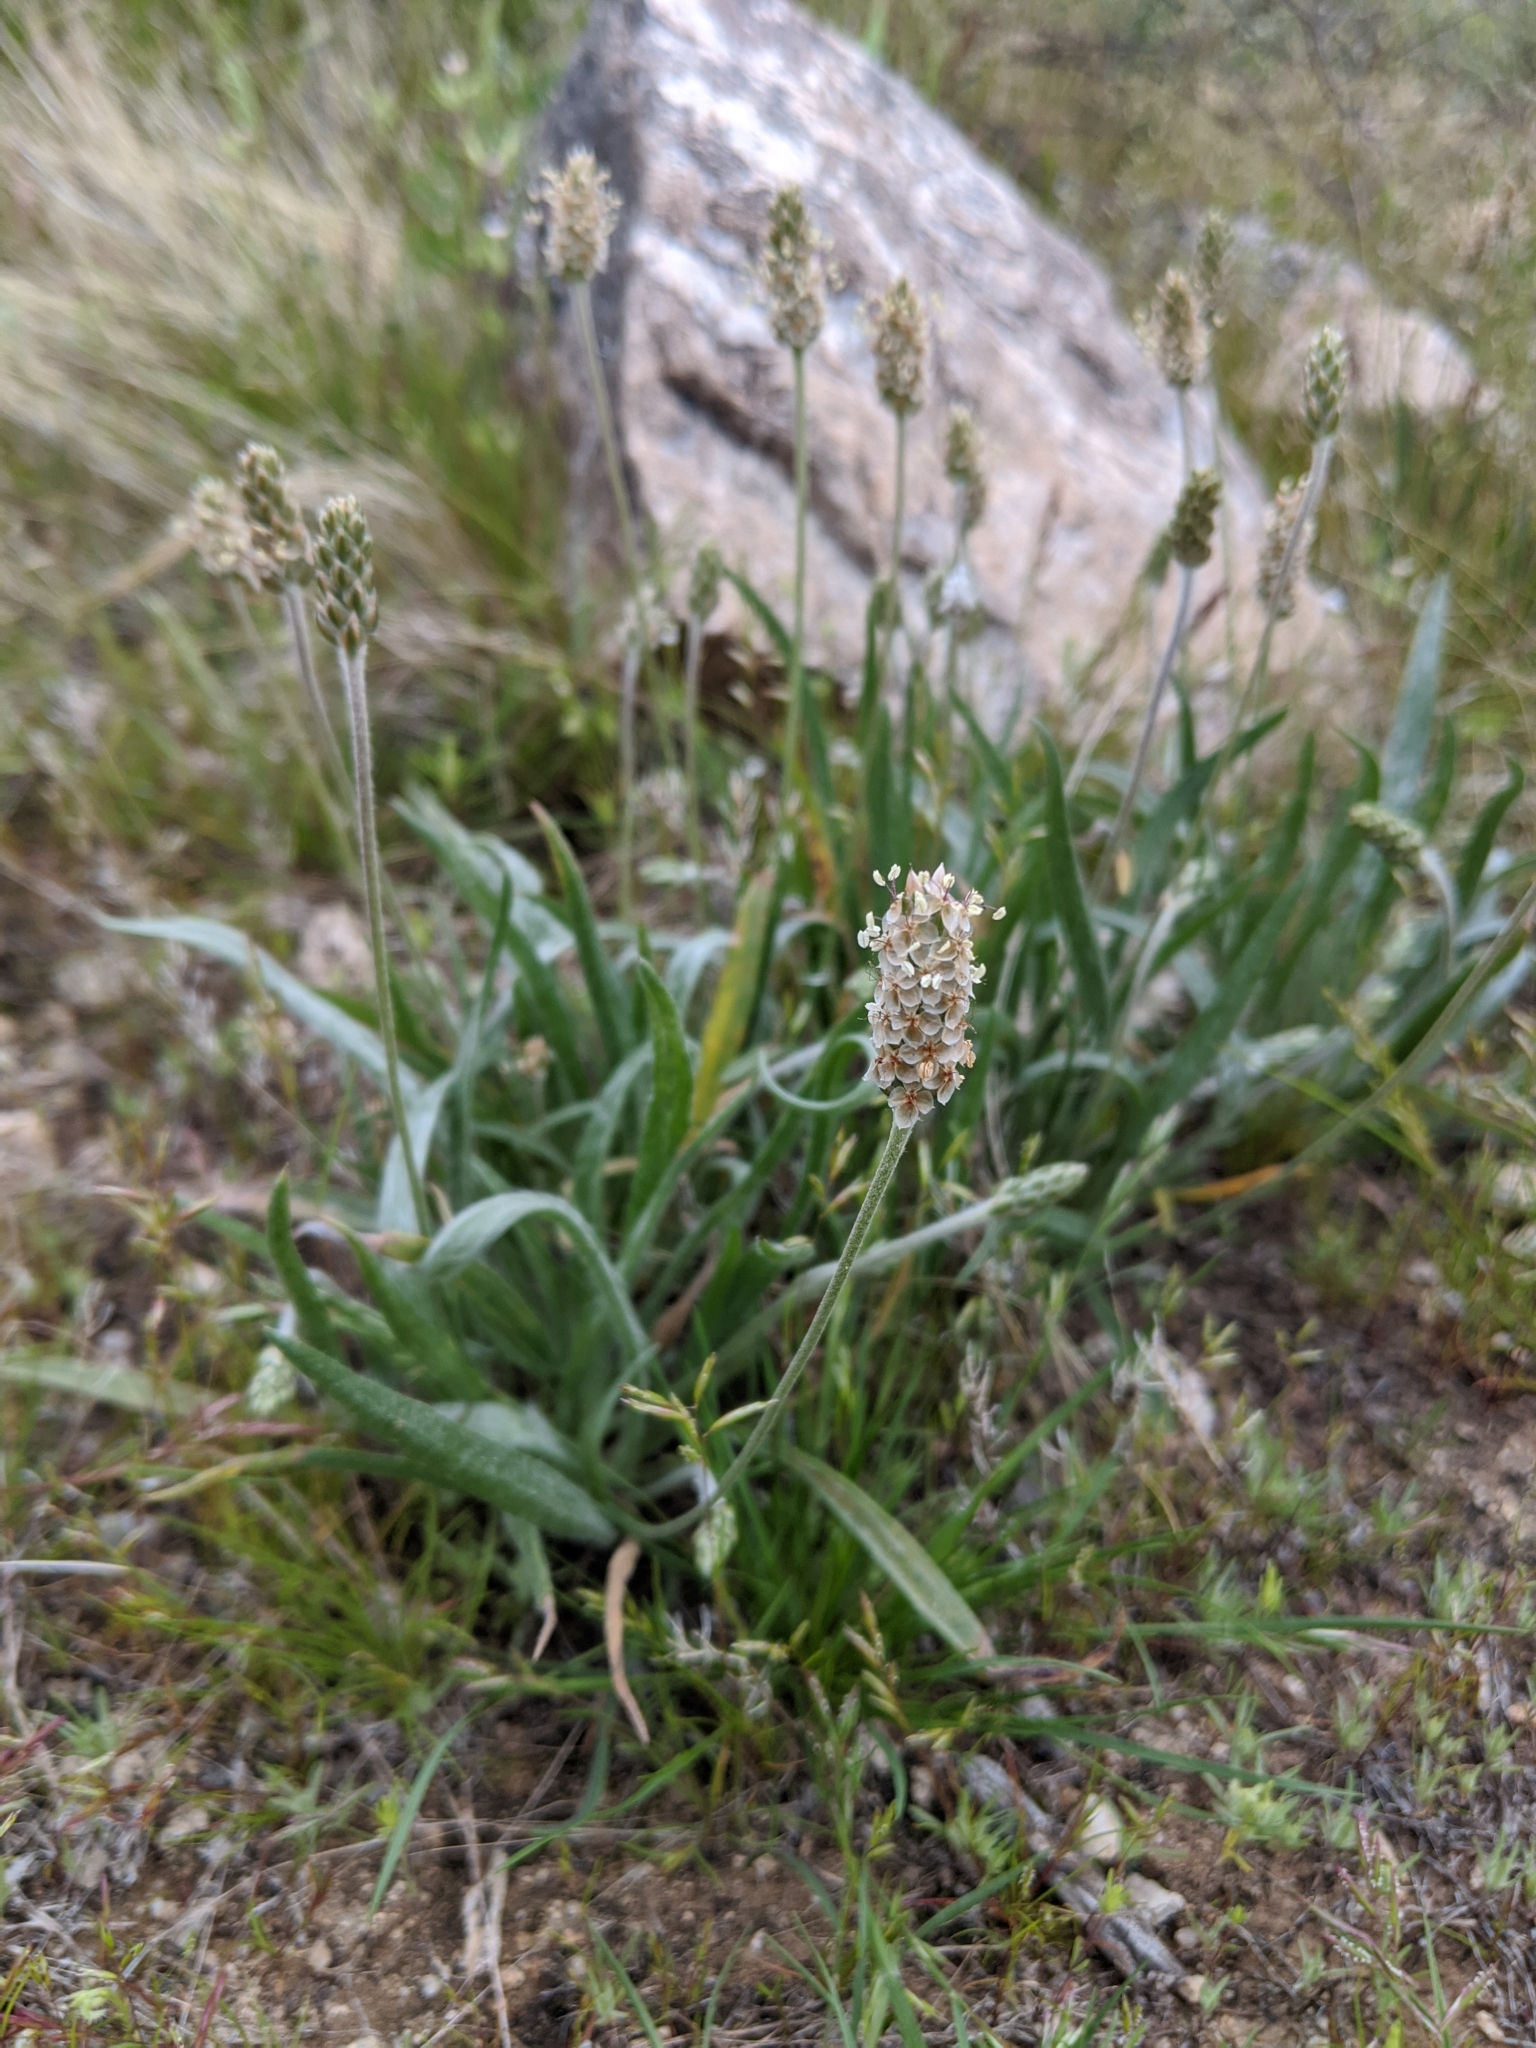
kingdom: Plantae
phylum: Tracheophyta
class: Magnoliopsida
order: Lamiales
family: Plantaginaceae
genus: Plantago
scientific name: Plantago ovata
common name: Blond plantain
